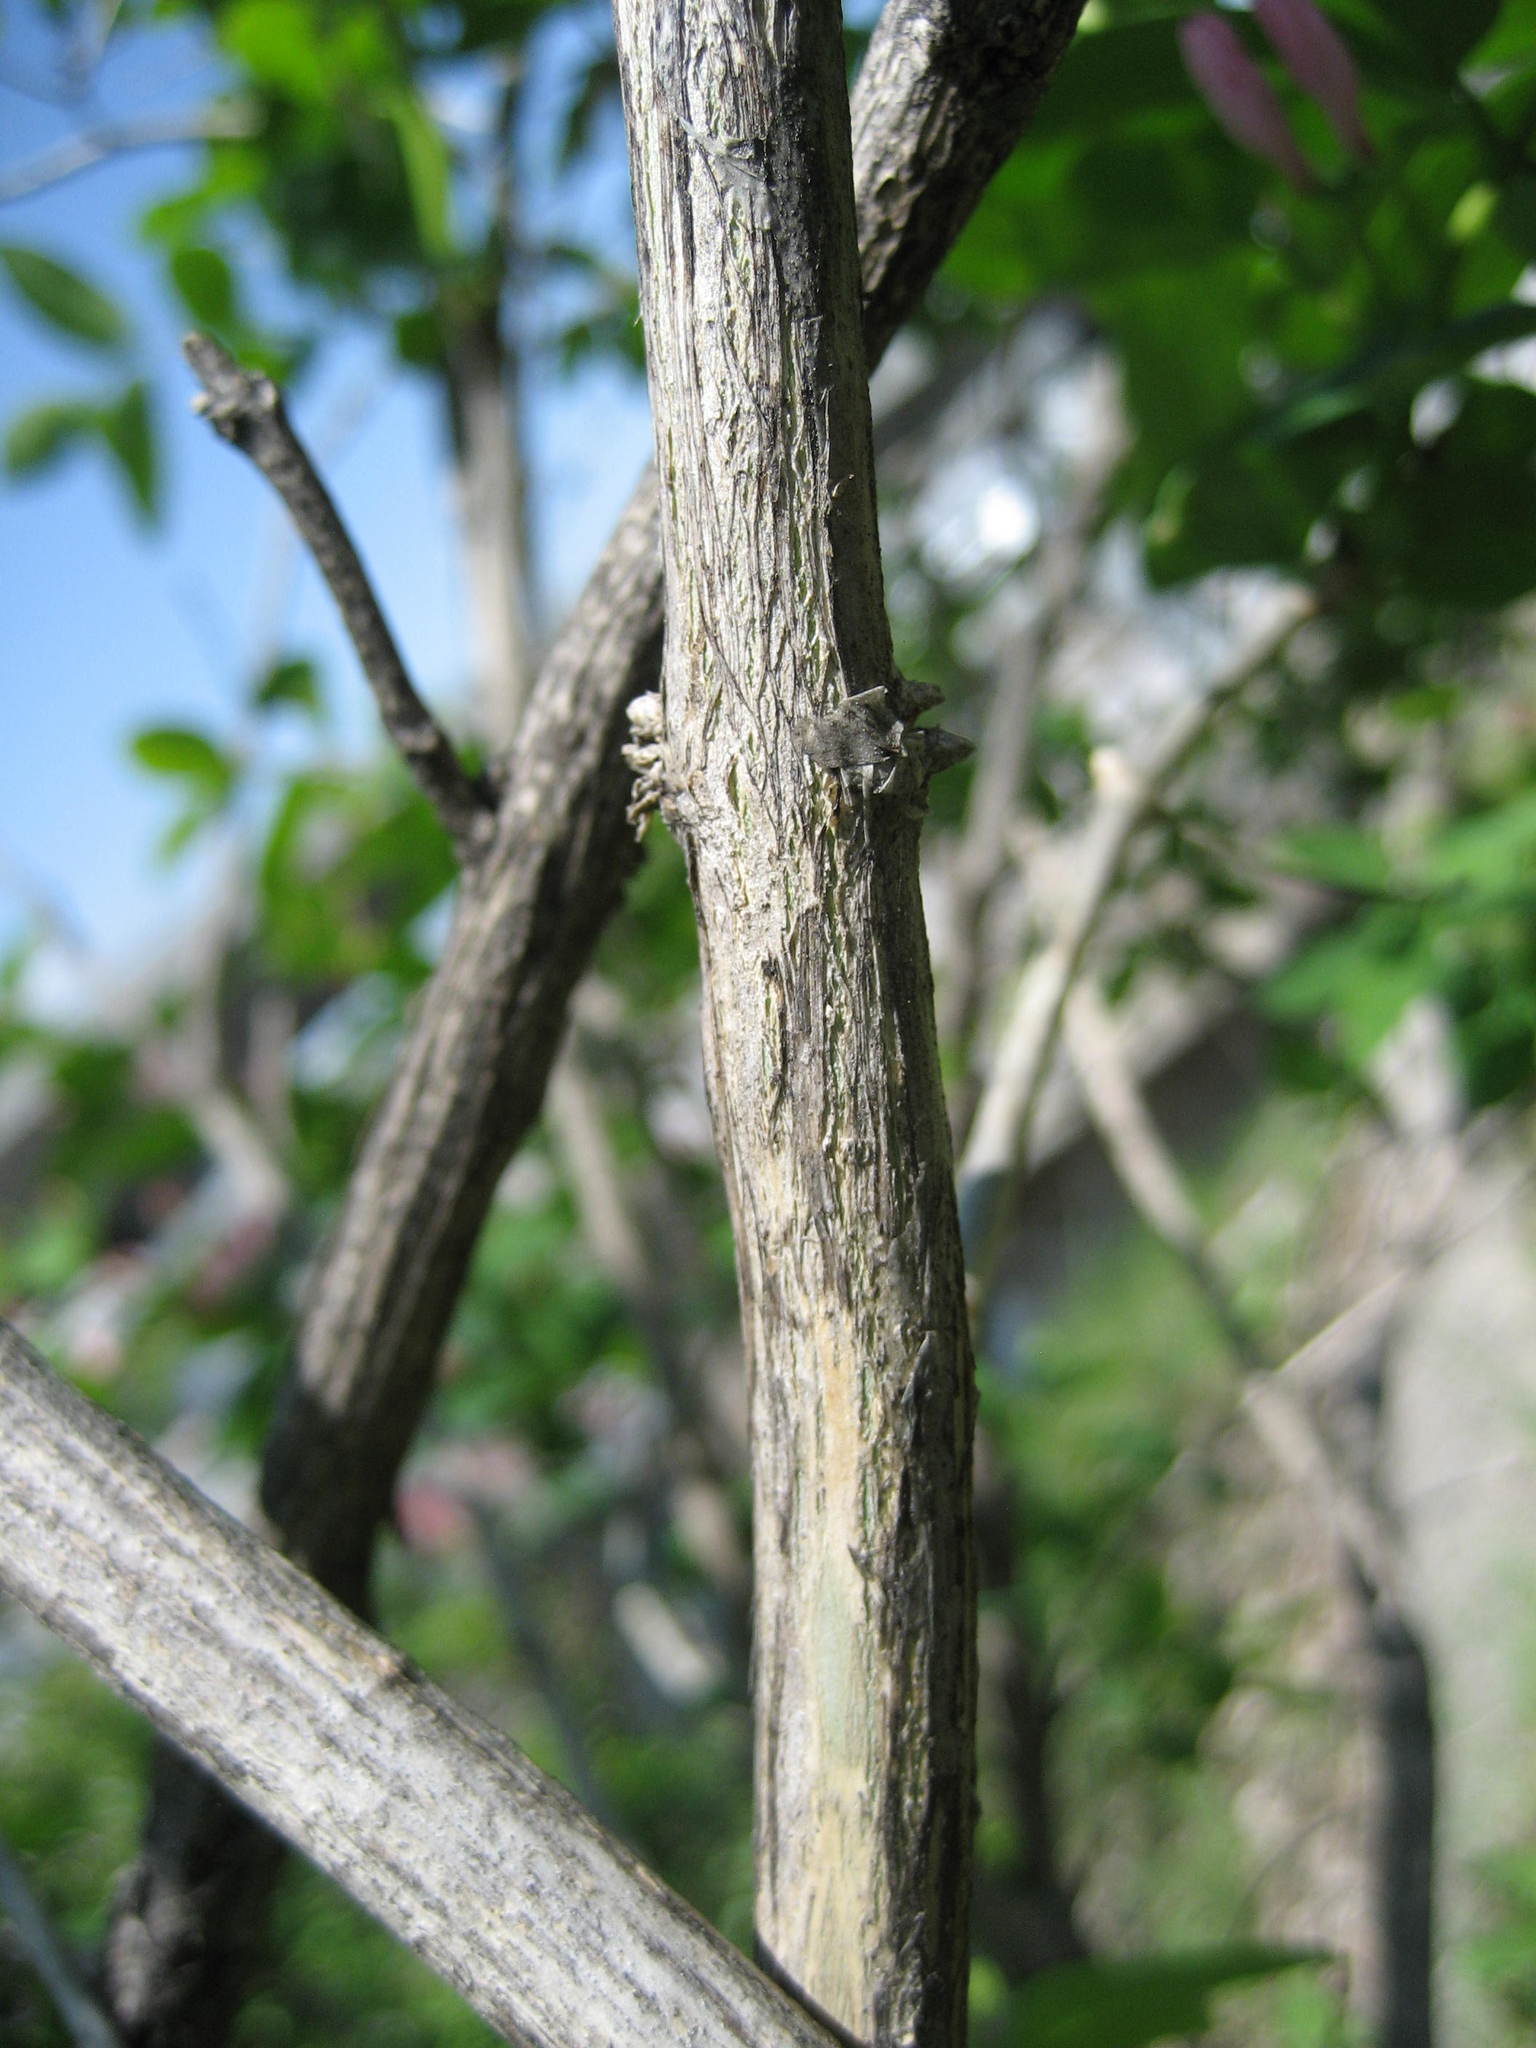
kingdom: Plantae
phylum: Tracheophyta
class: Magnoliopsida
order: Dipsacales
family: Caprifoliaceae
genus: Lonicera
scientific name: Lonicera tatarica
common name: Tatarian honeysuckle
